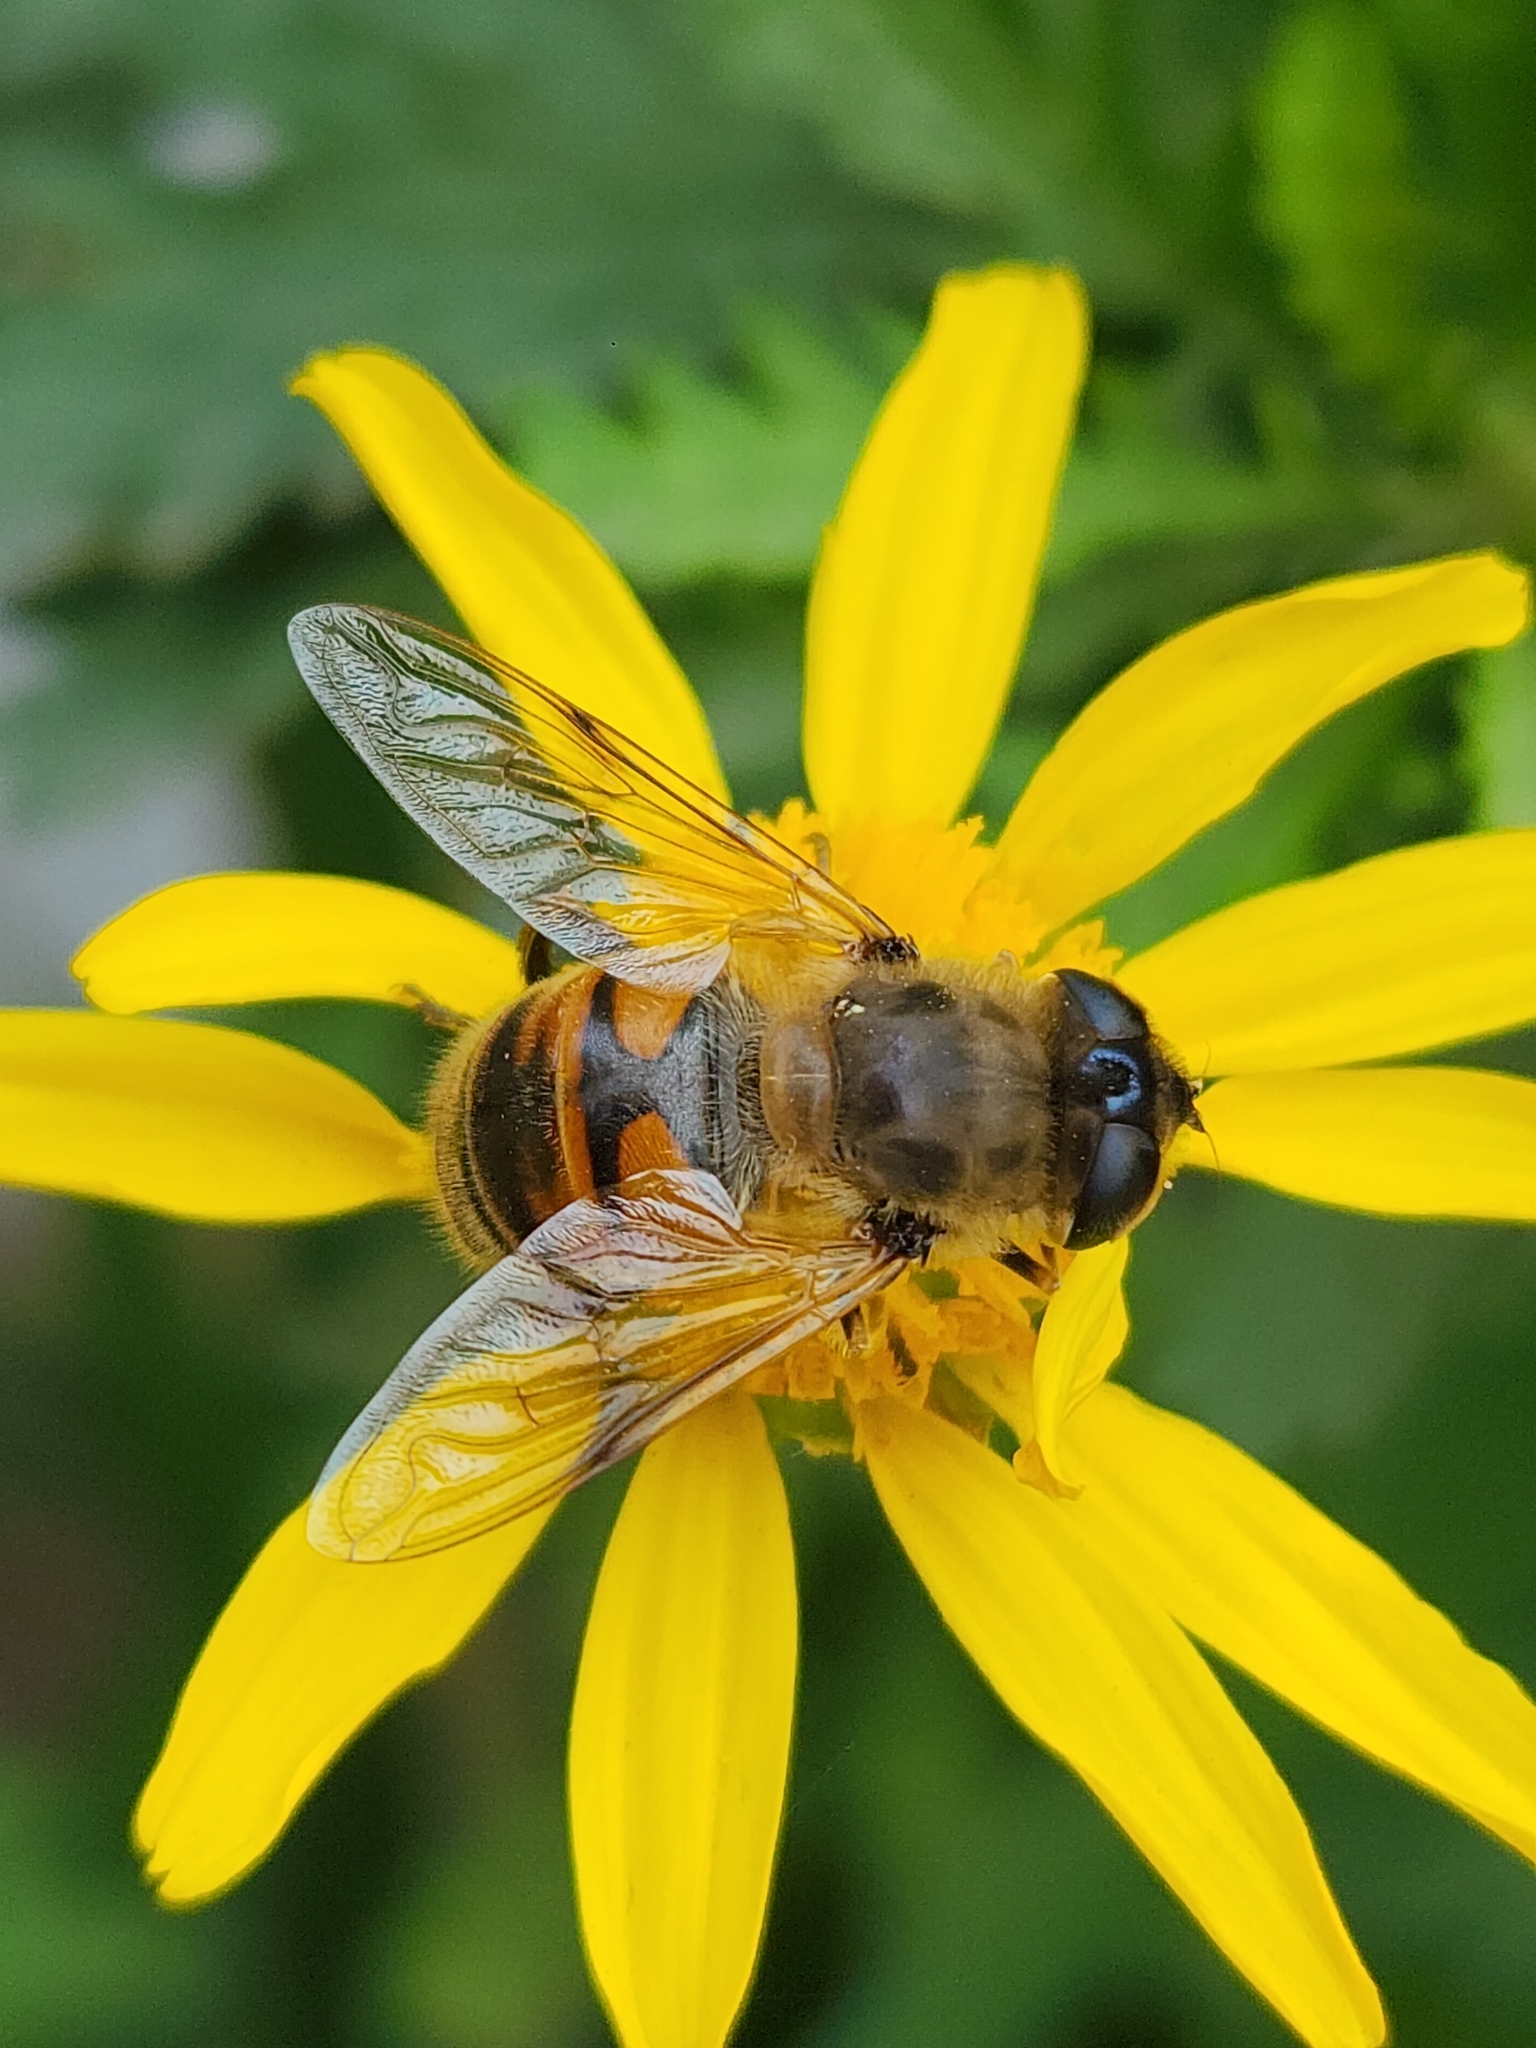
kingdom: Animalia
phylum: Arthropoda
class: Insecta
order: Diptera
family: Syrphidae
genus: Eristalis
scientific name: Eristalis tenax
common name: Drone fly
